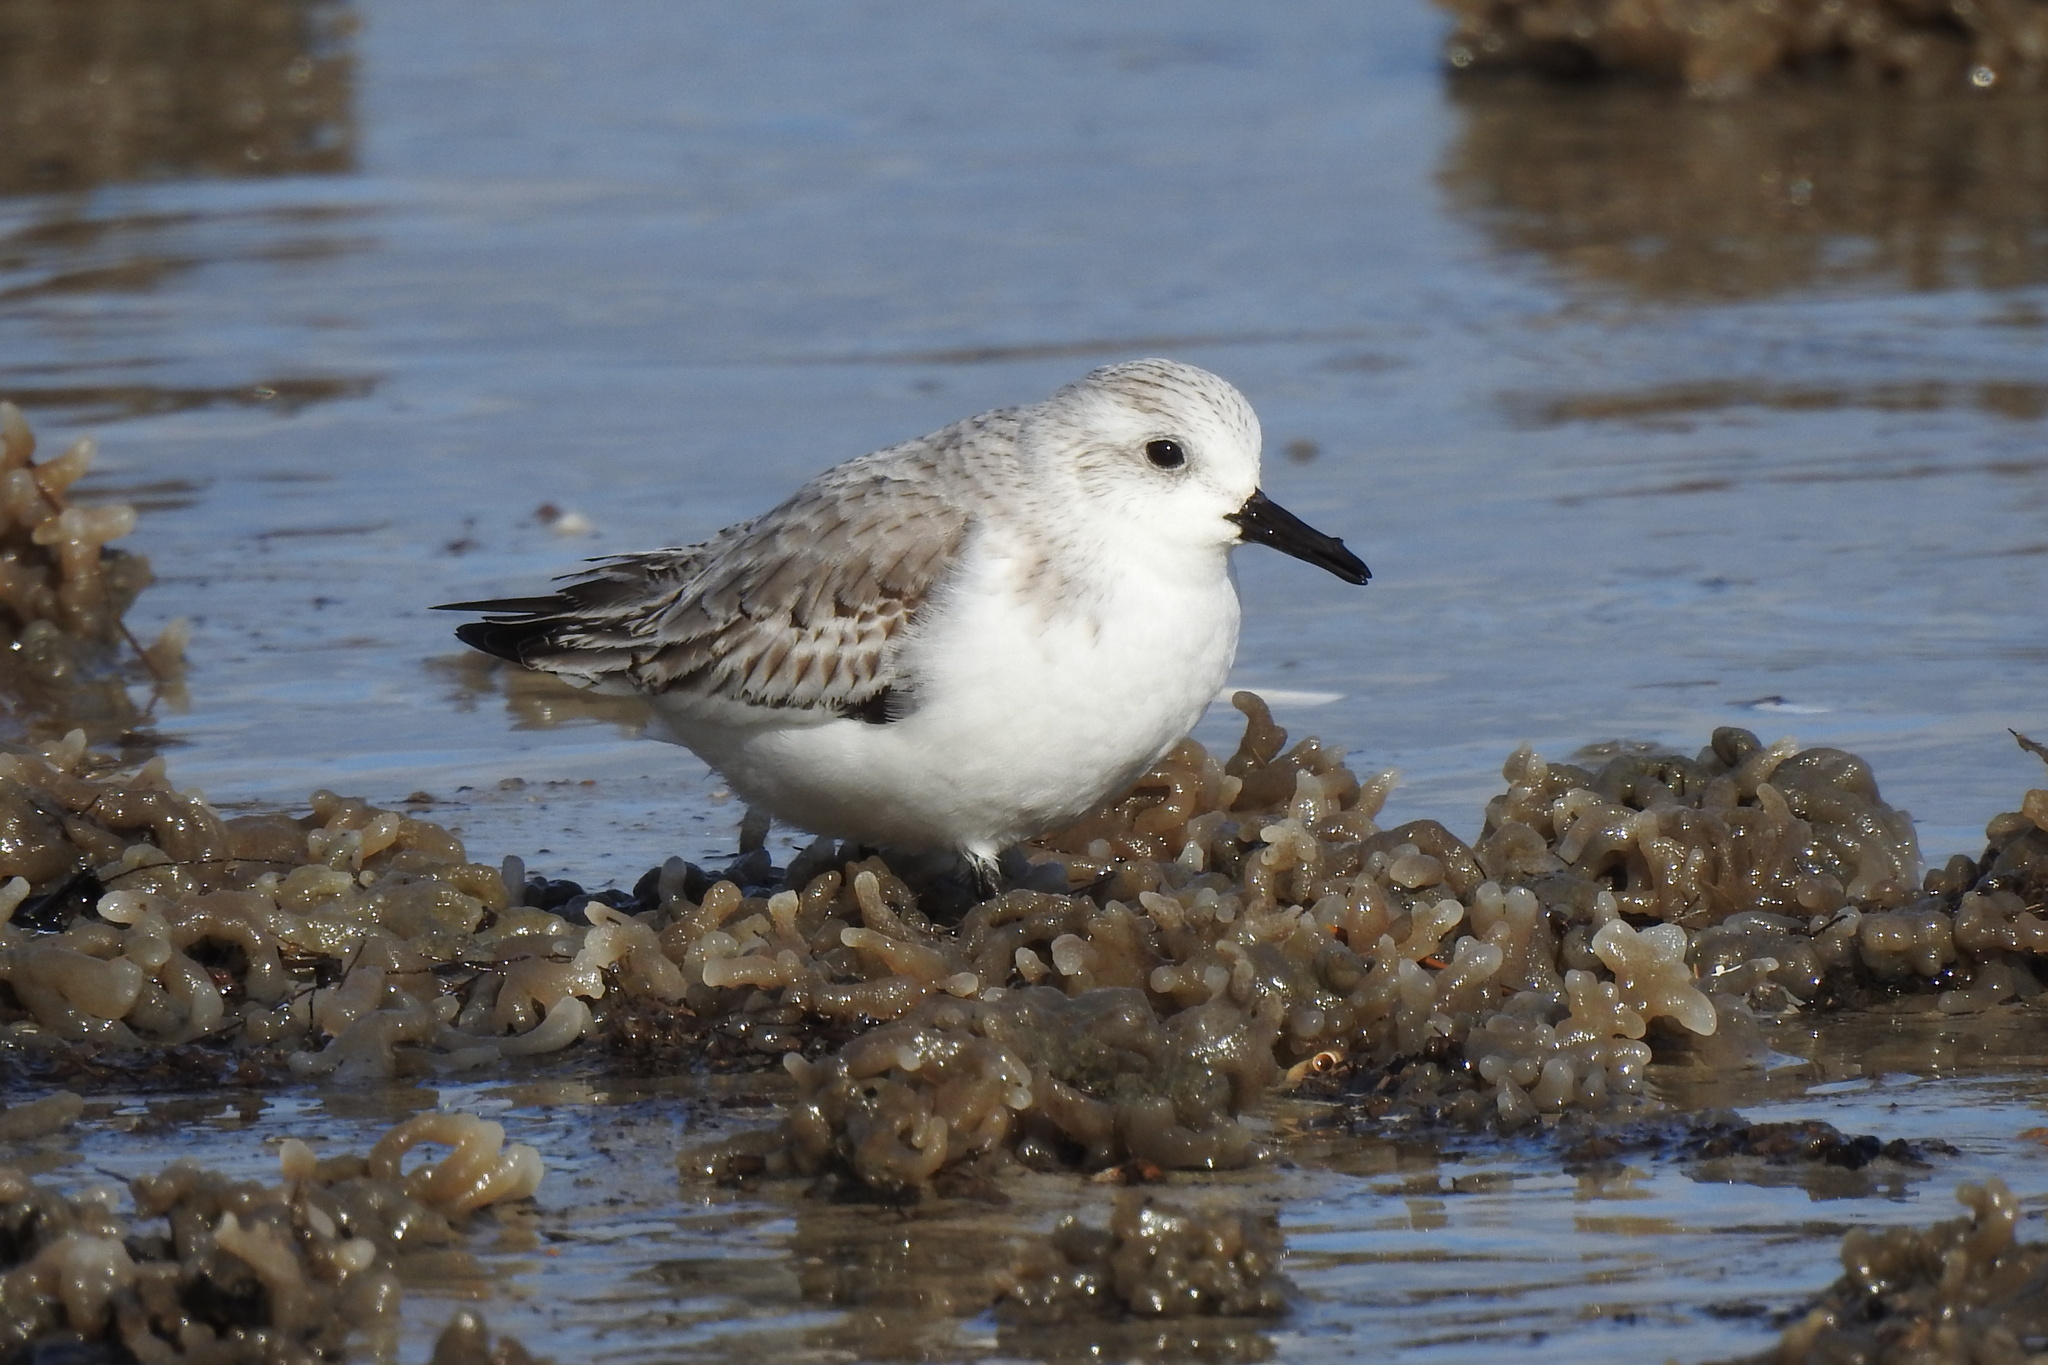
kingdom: Animalia
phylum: Chordata
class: Aves
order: Charadriiformes
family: Scolopacidae
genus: Calidris
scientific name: Calidris alba
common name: Sanderling
